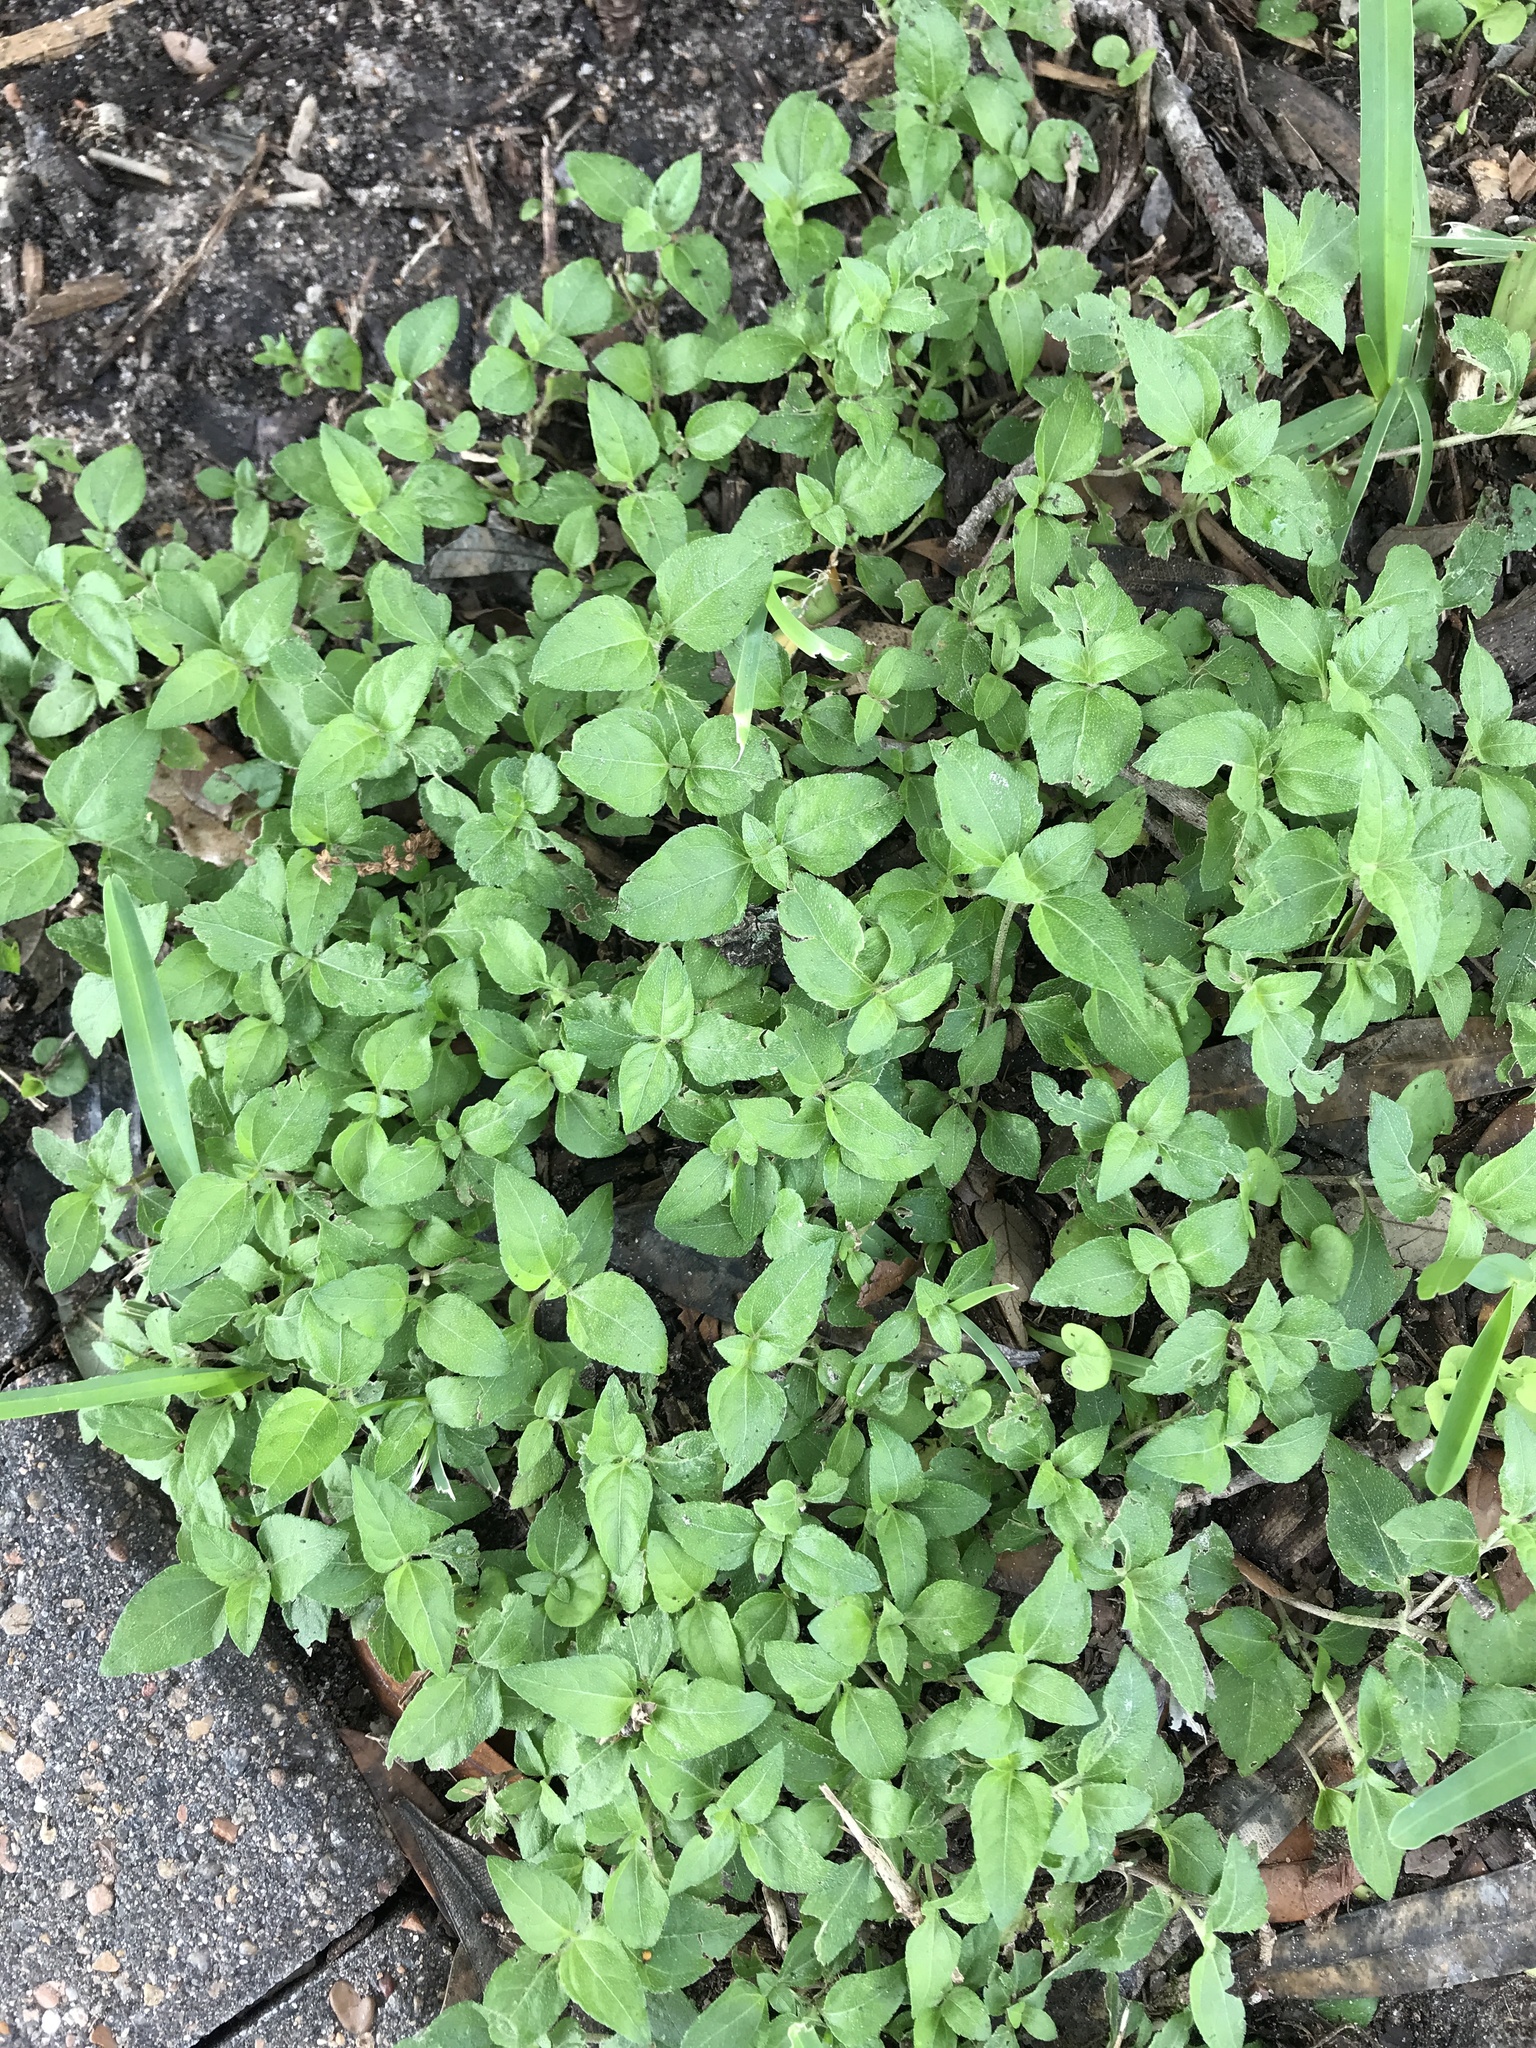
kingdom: Plantae
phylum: Tracheophyta
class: Magnoliopsida
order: Asterales
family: Asteraceae
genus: Calyptocarpus
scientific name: Calyptocarpus vialis
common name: Straggler daisy
